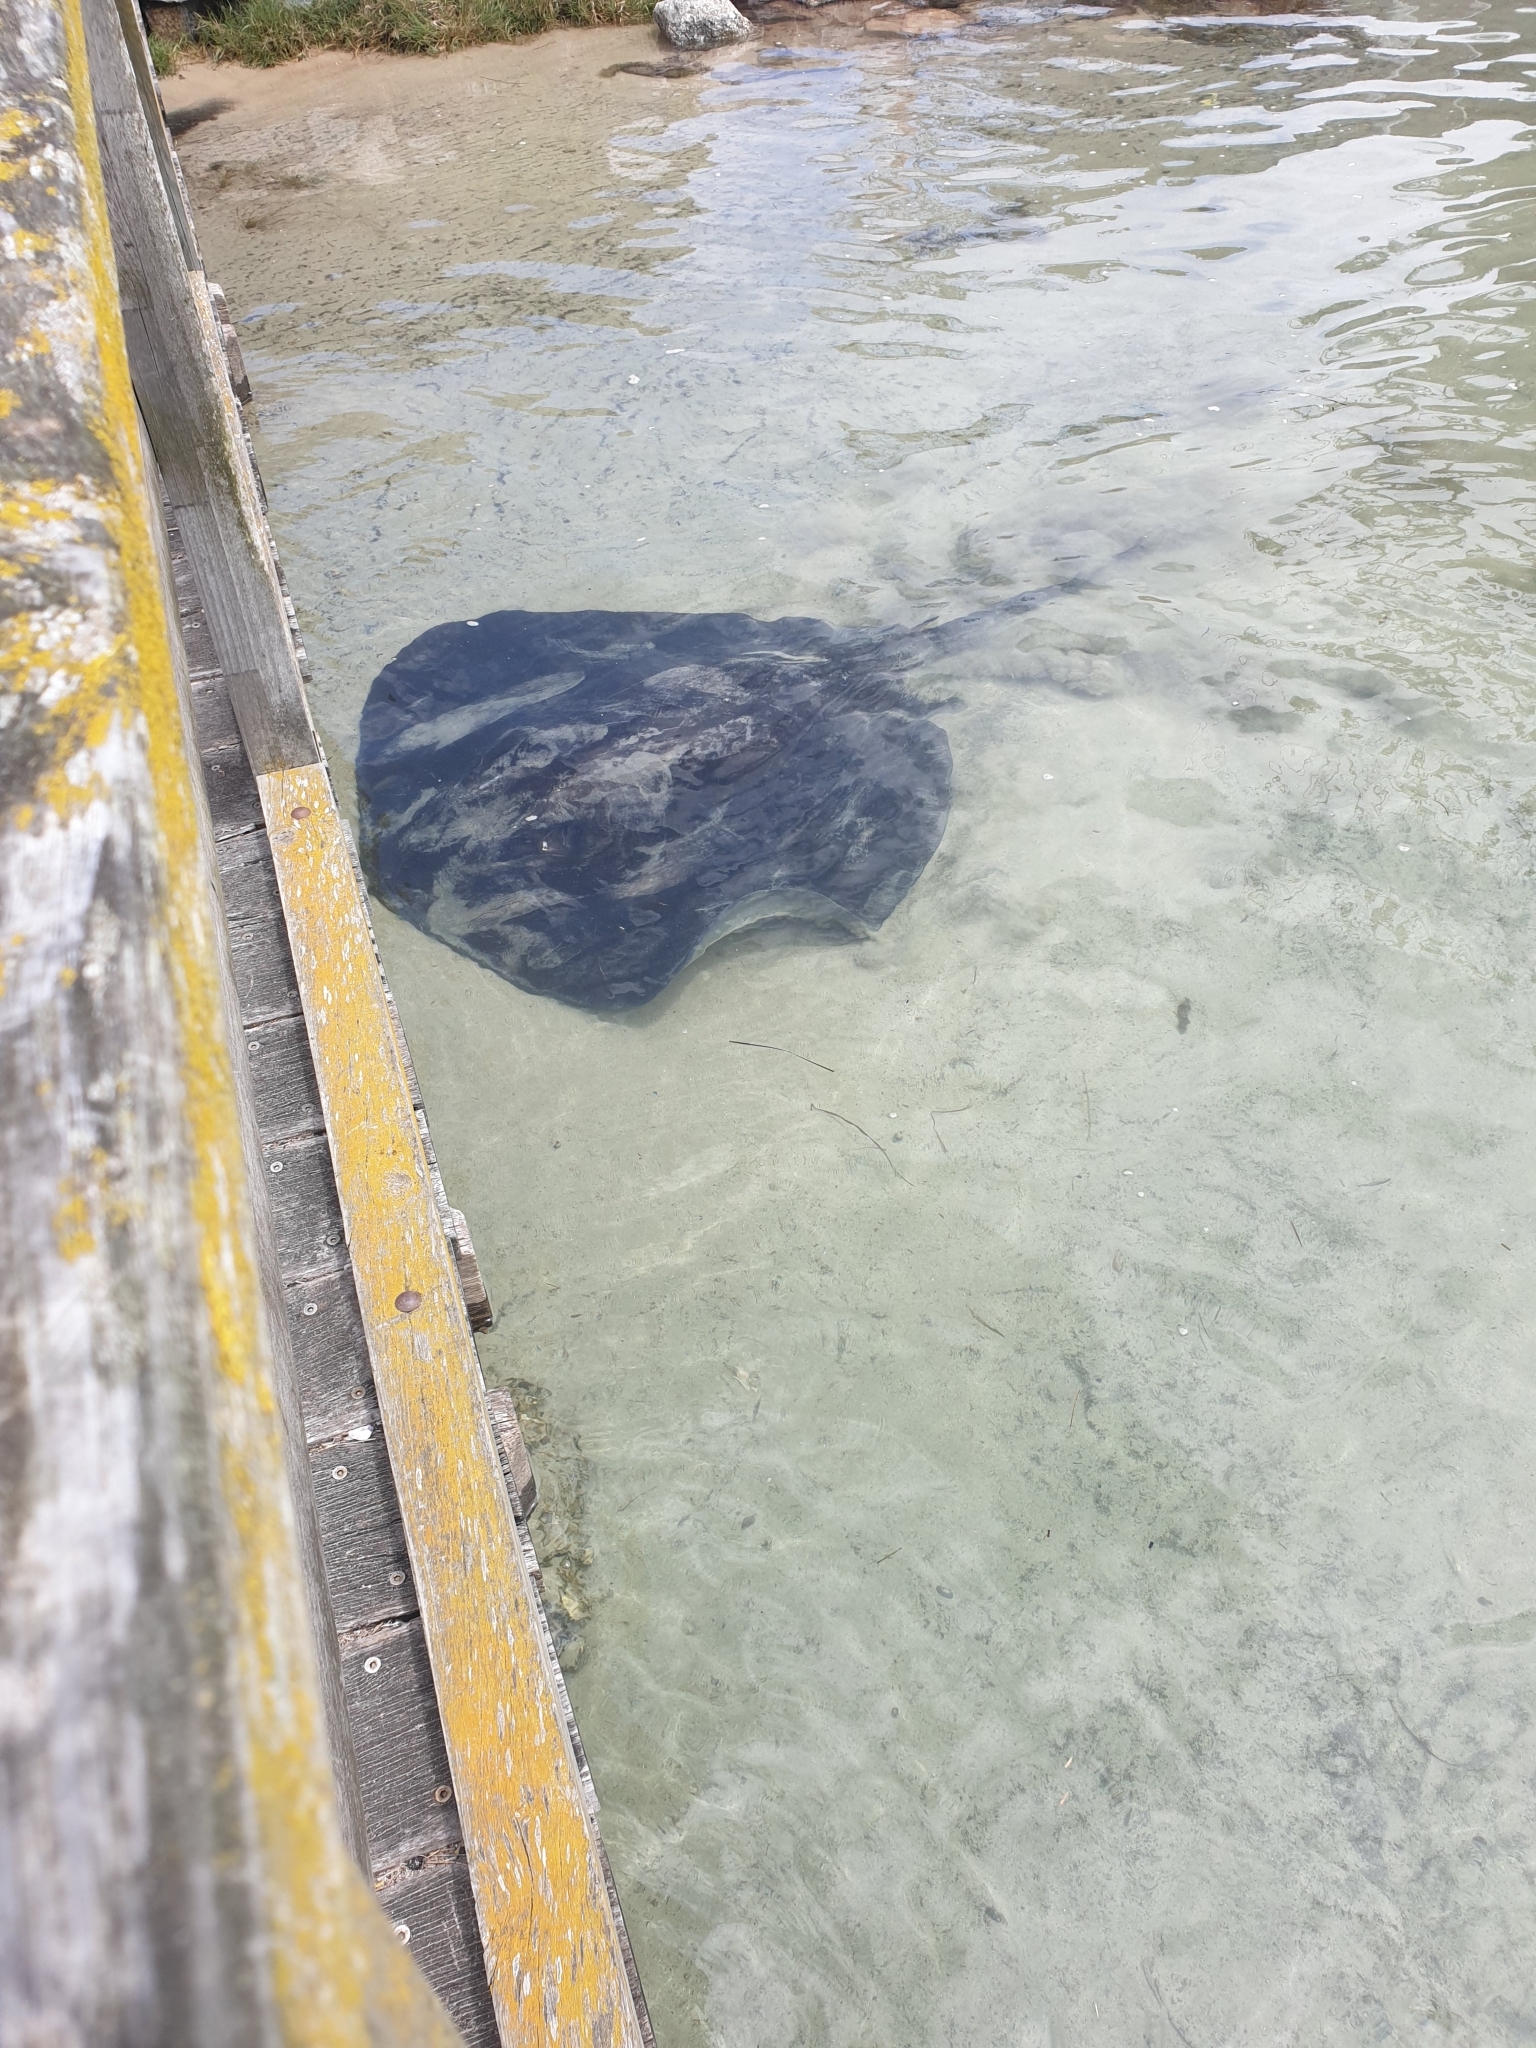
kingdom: Animalia
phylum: Chordata
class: Elasmobranchii
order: Myliobatiformes
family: Dasyatidae
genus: Bathytoshia
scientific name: Bathytoshia brevicaudata
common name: Short-tail stingray
